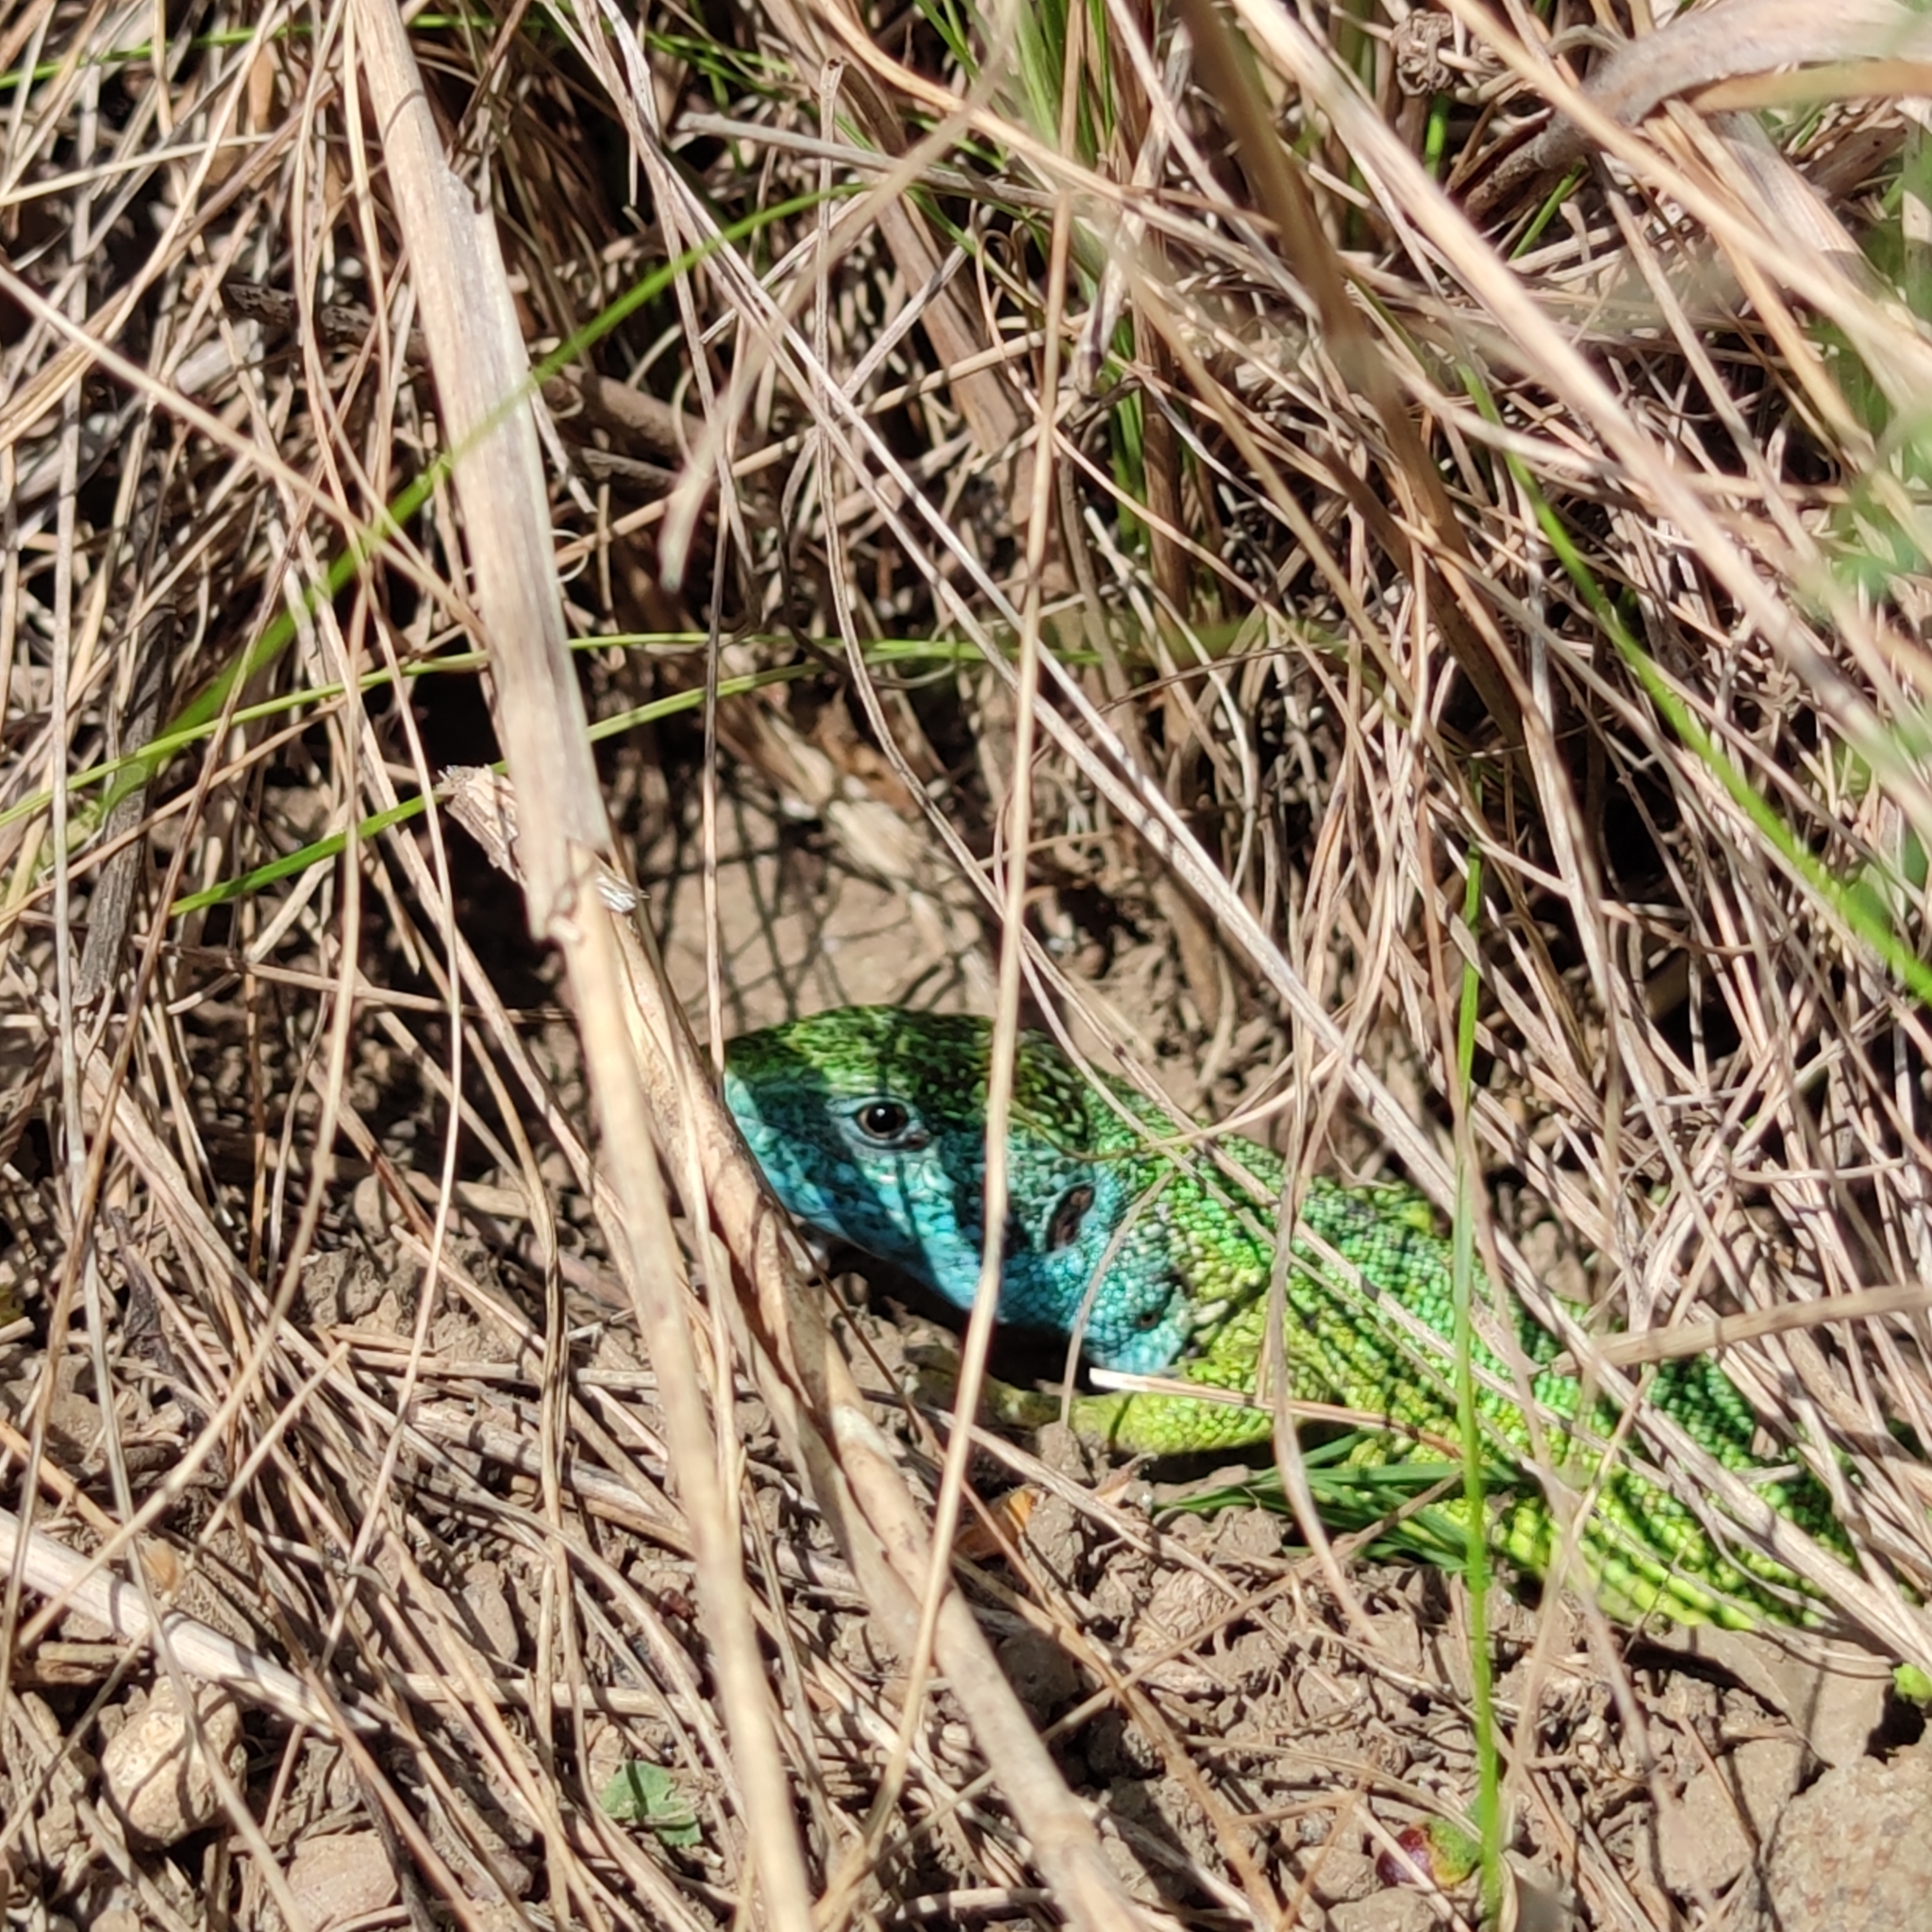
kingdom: Animalia
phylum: Chordata
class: Squamata
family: Lacertidae
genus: Lacerta
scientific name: Lacerta viridis
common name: European green lizard
